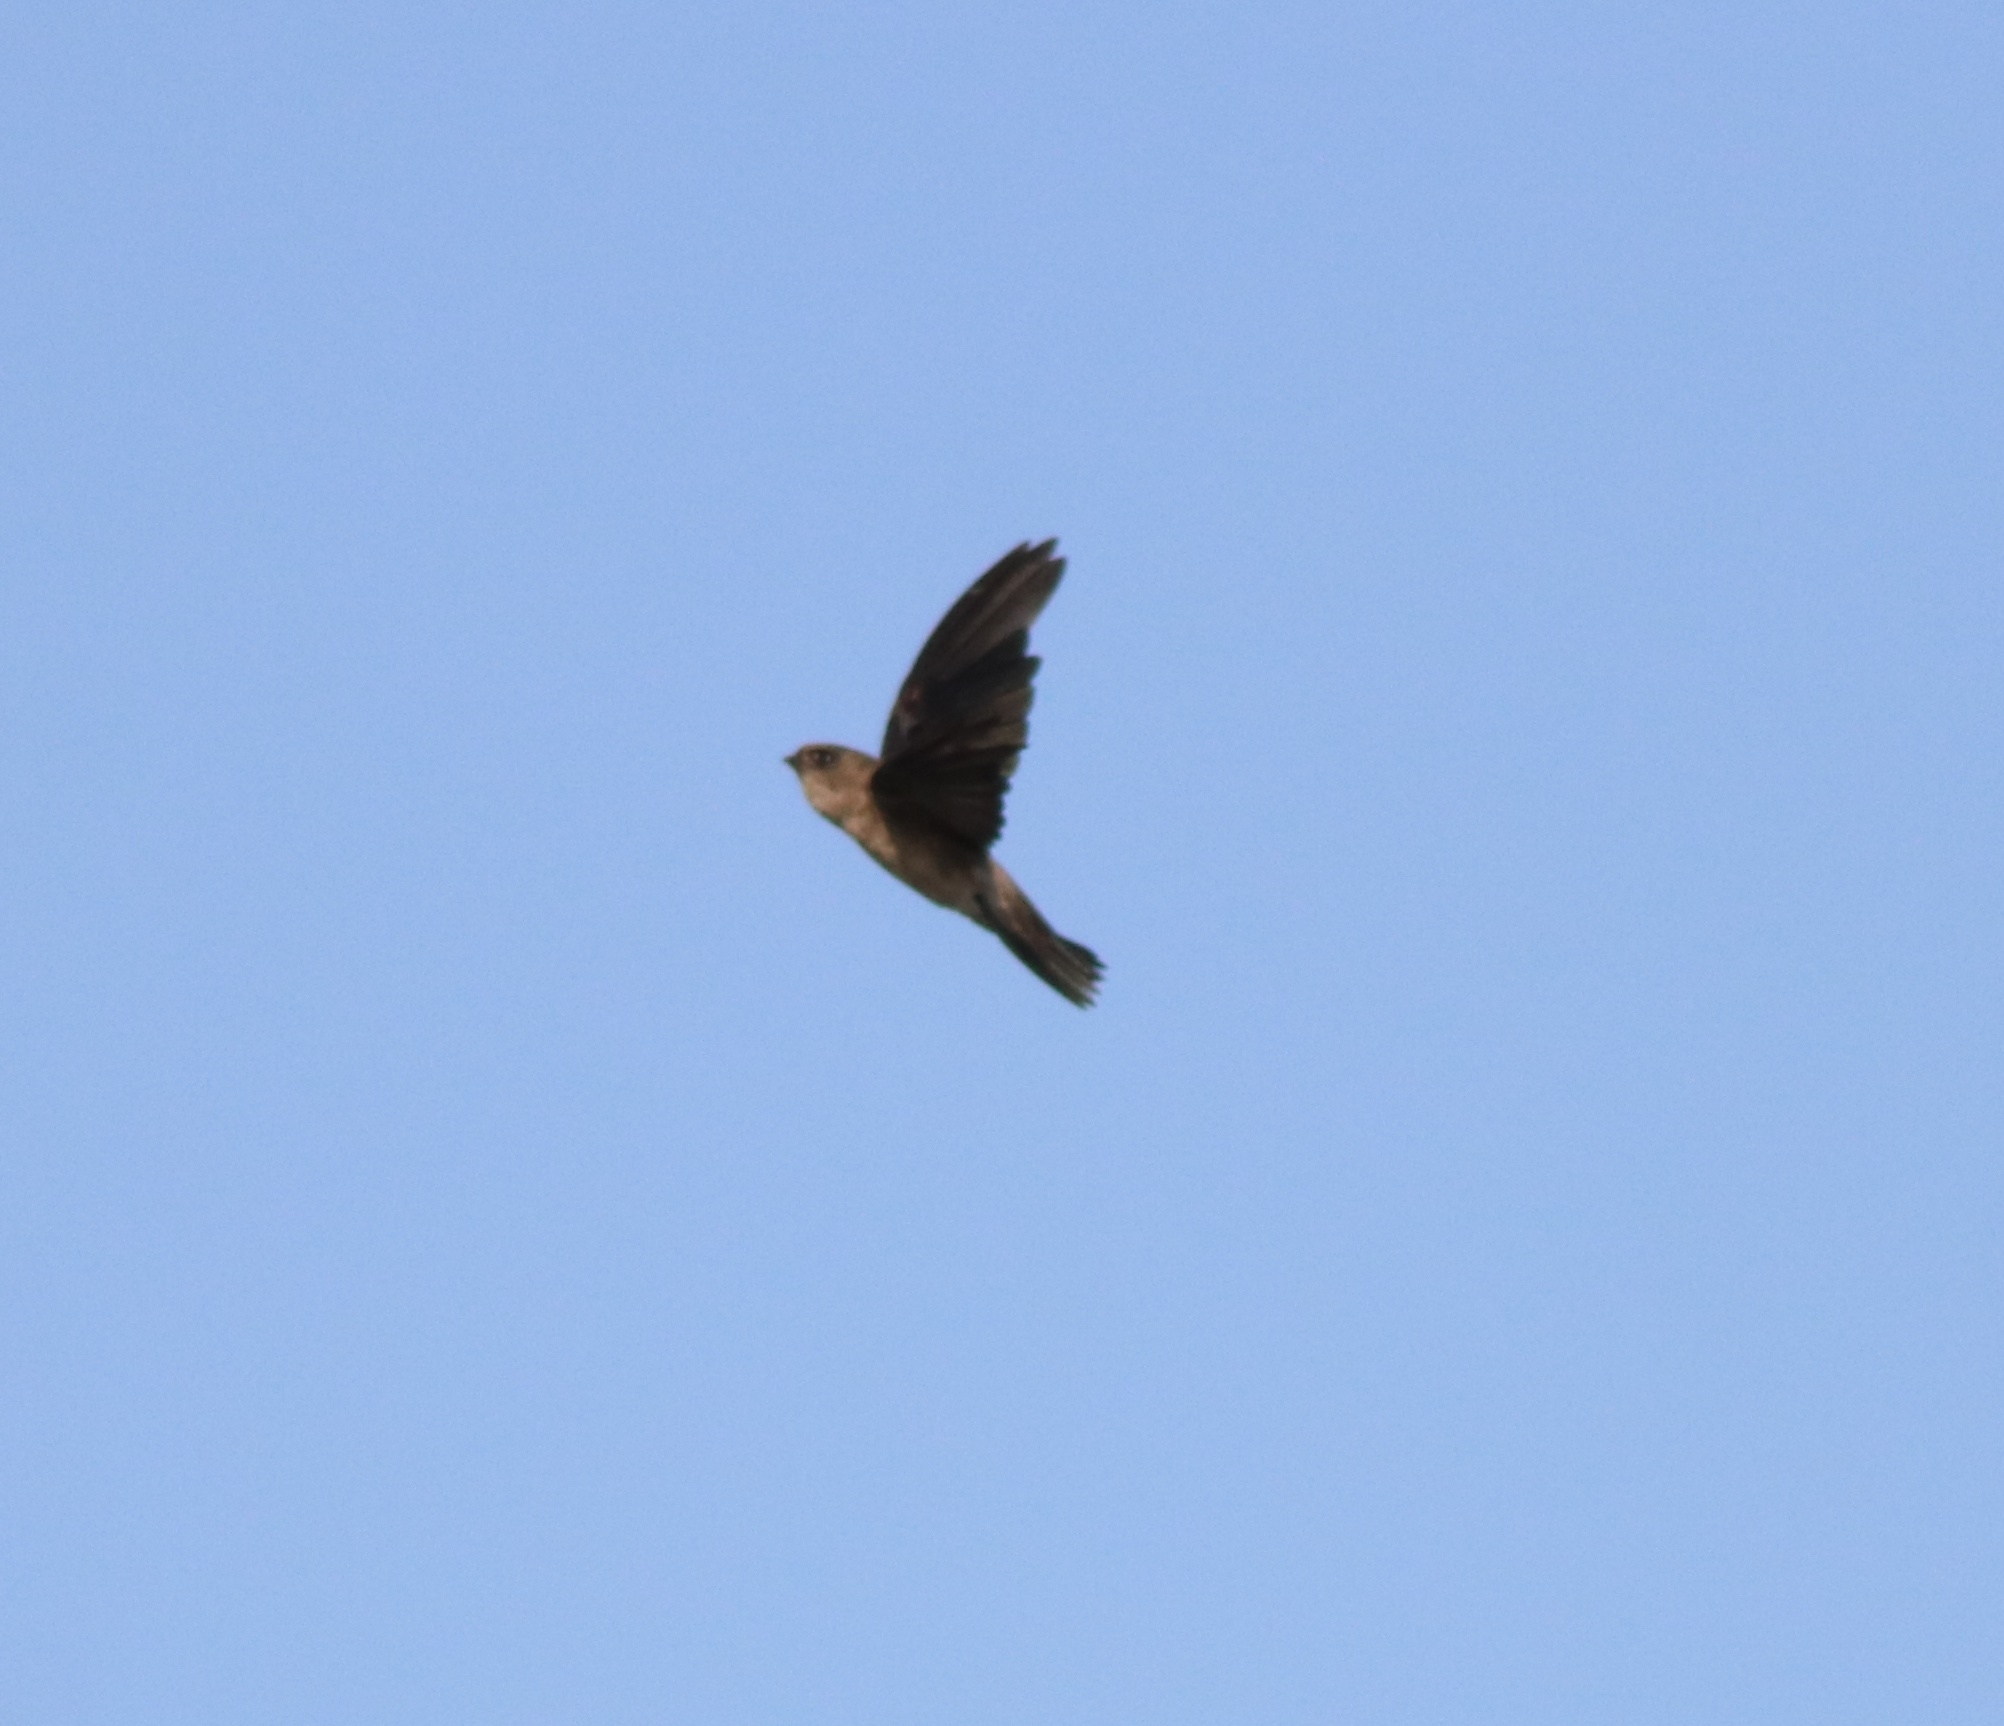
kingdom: Animalia
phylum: Chordata
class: Aves
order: Apodiformes
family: Apodidae
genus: Aerodramus
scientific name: Aerodramus unicolor
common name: Indian swiftlet
